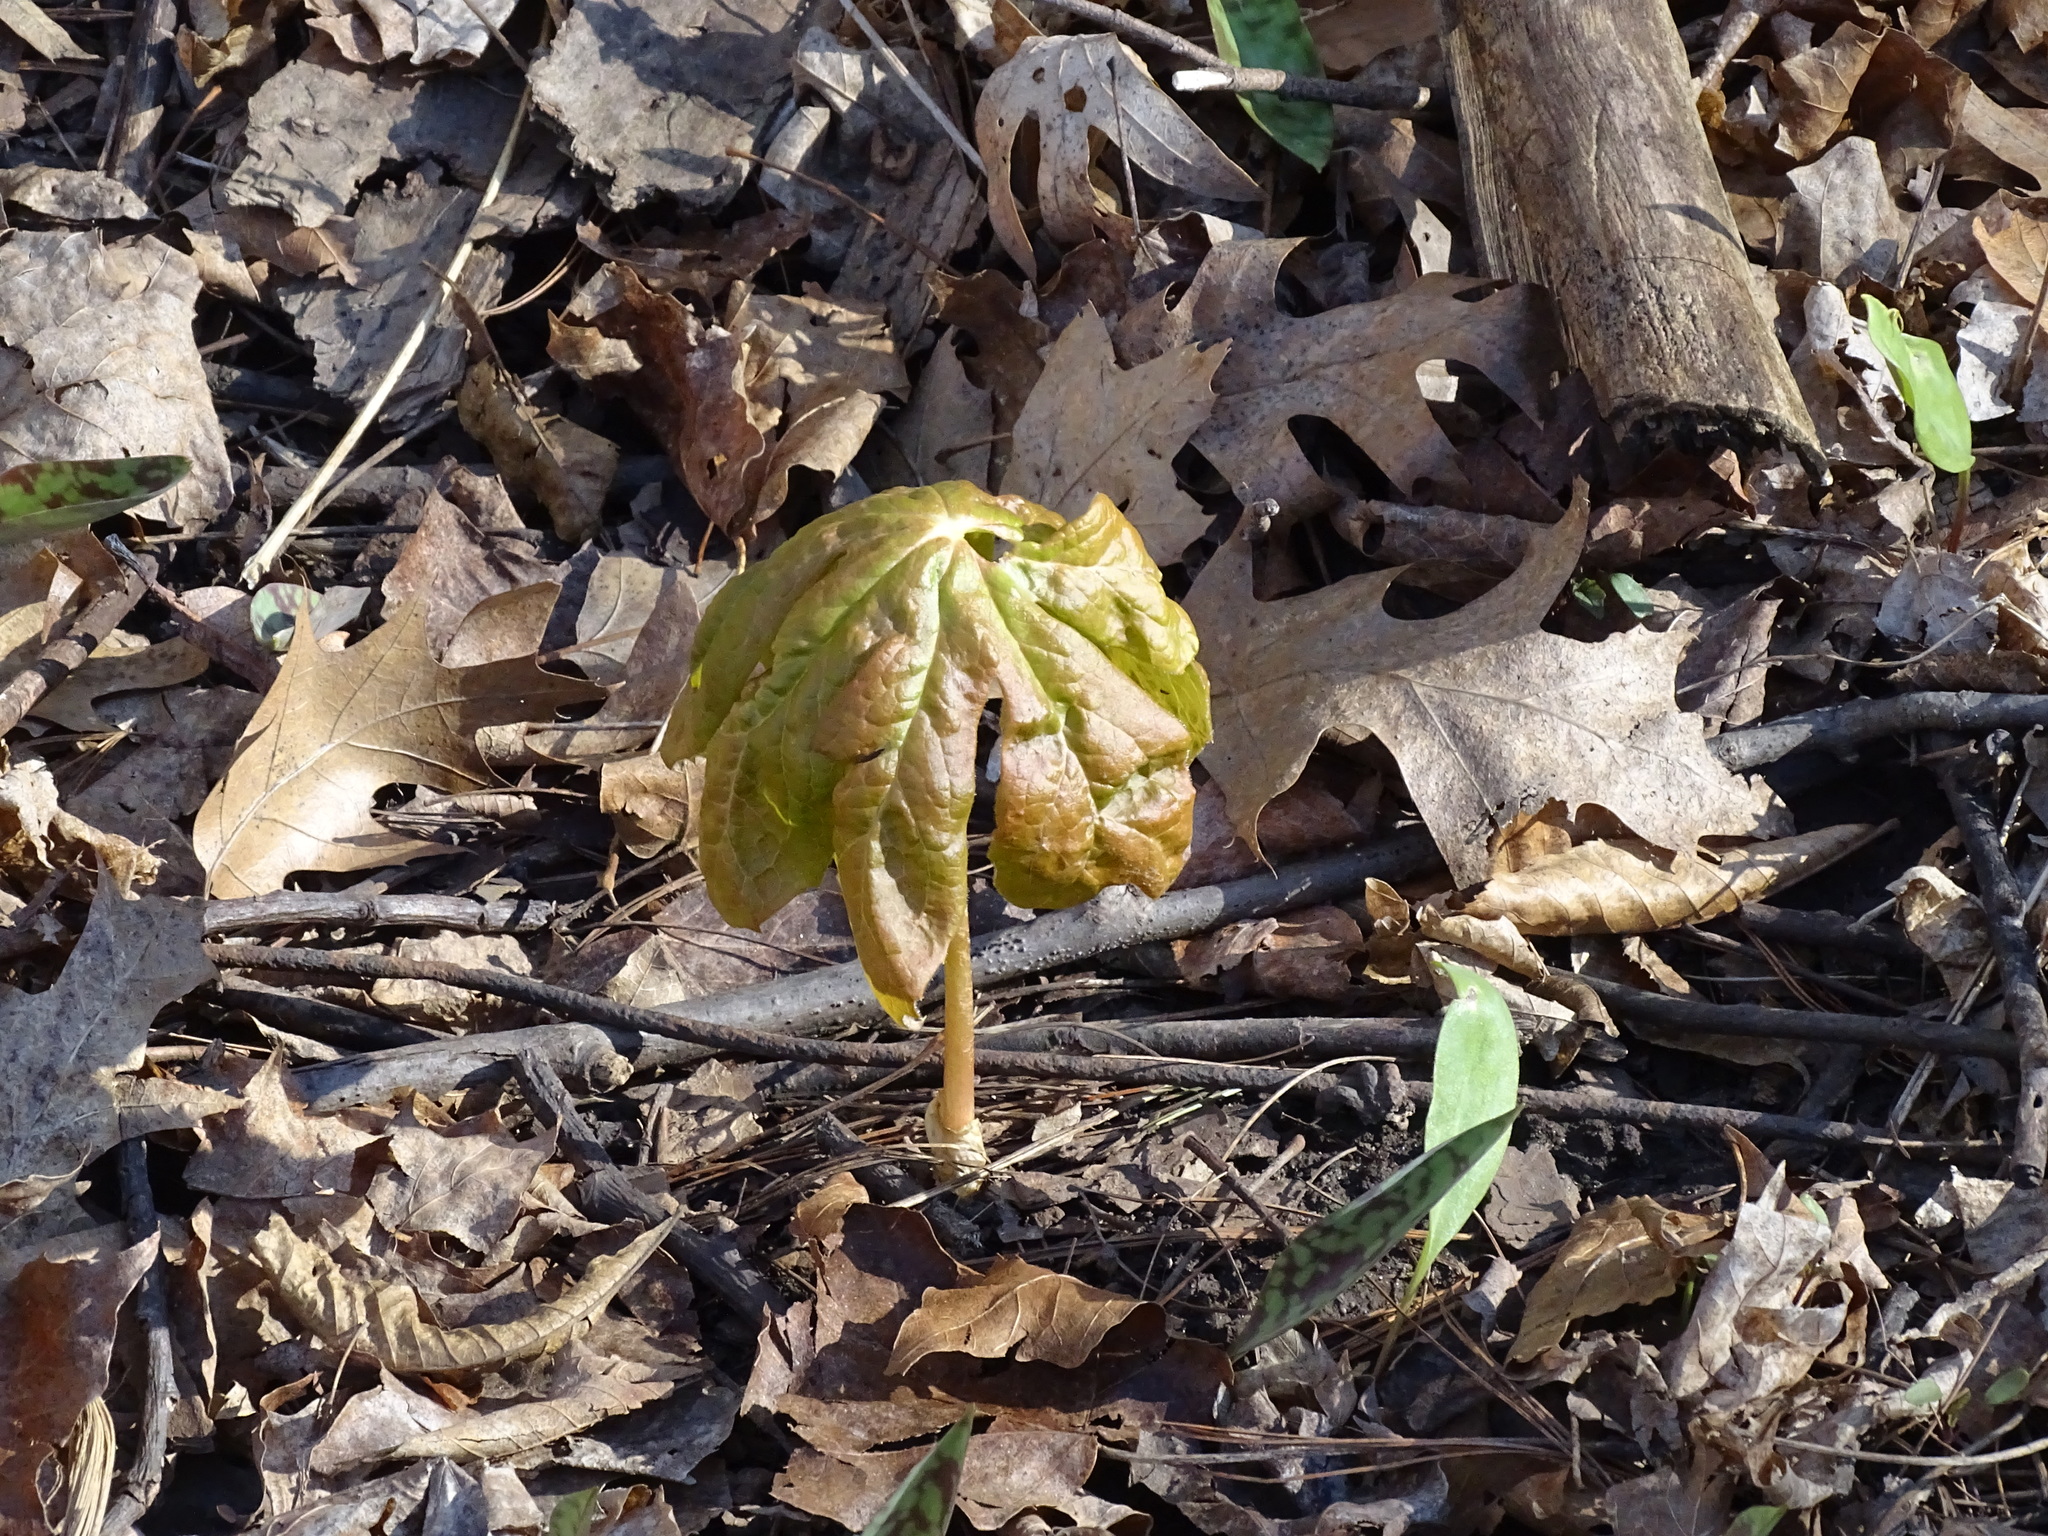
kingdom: Plantae
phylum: Tracheophyta
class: Magnoliopsida
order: Ranunculales
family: Berberidaceae
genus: Podophyllum
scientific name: Podophyllum peltatum
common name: Wild mandrake
